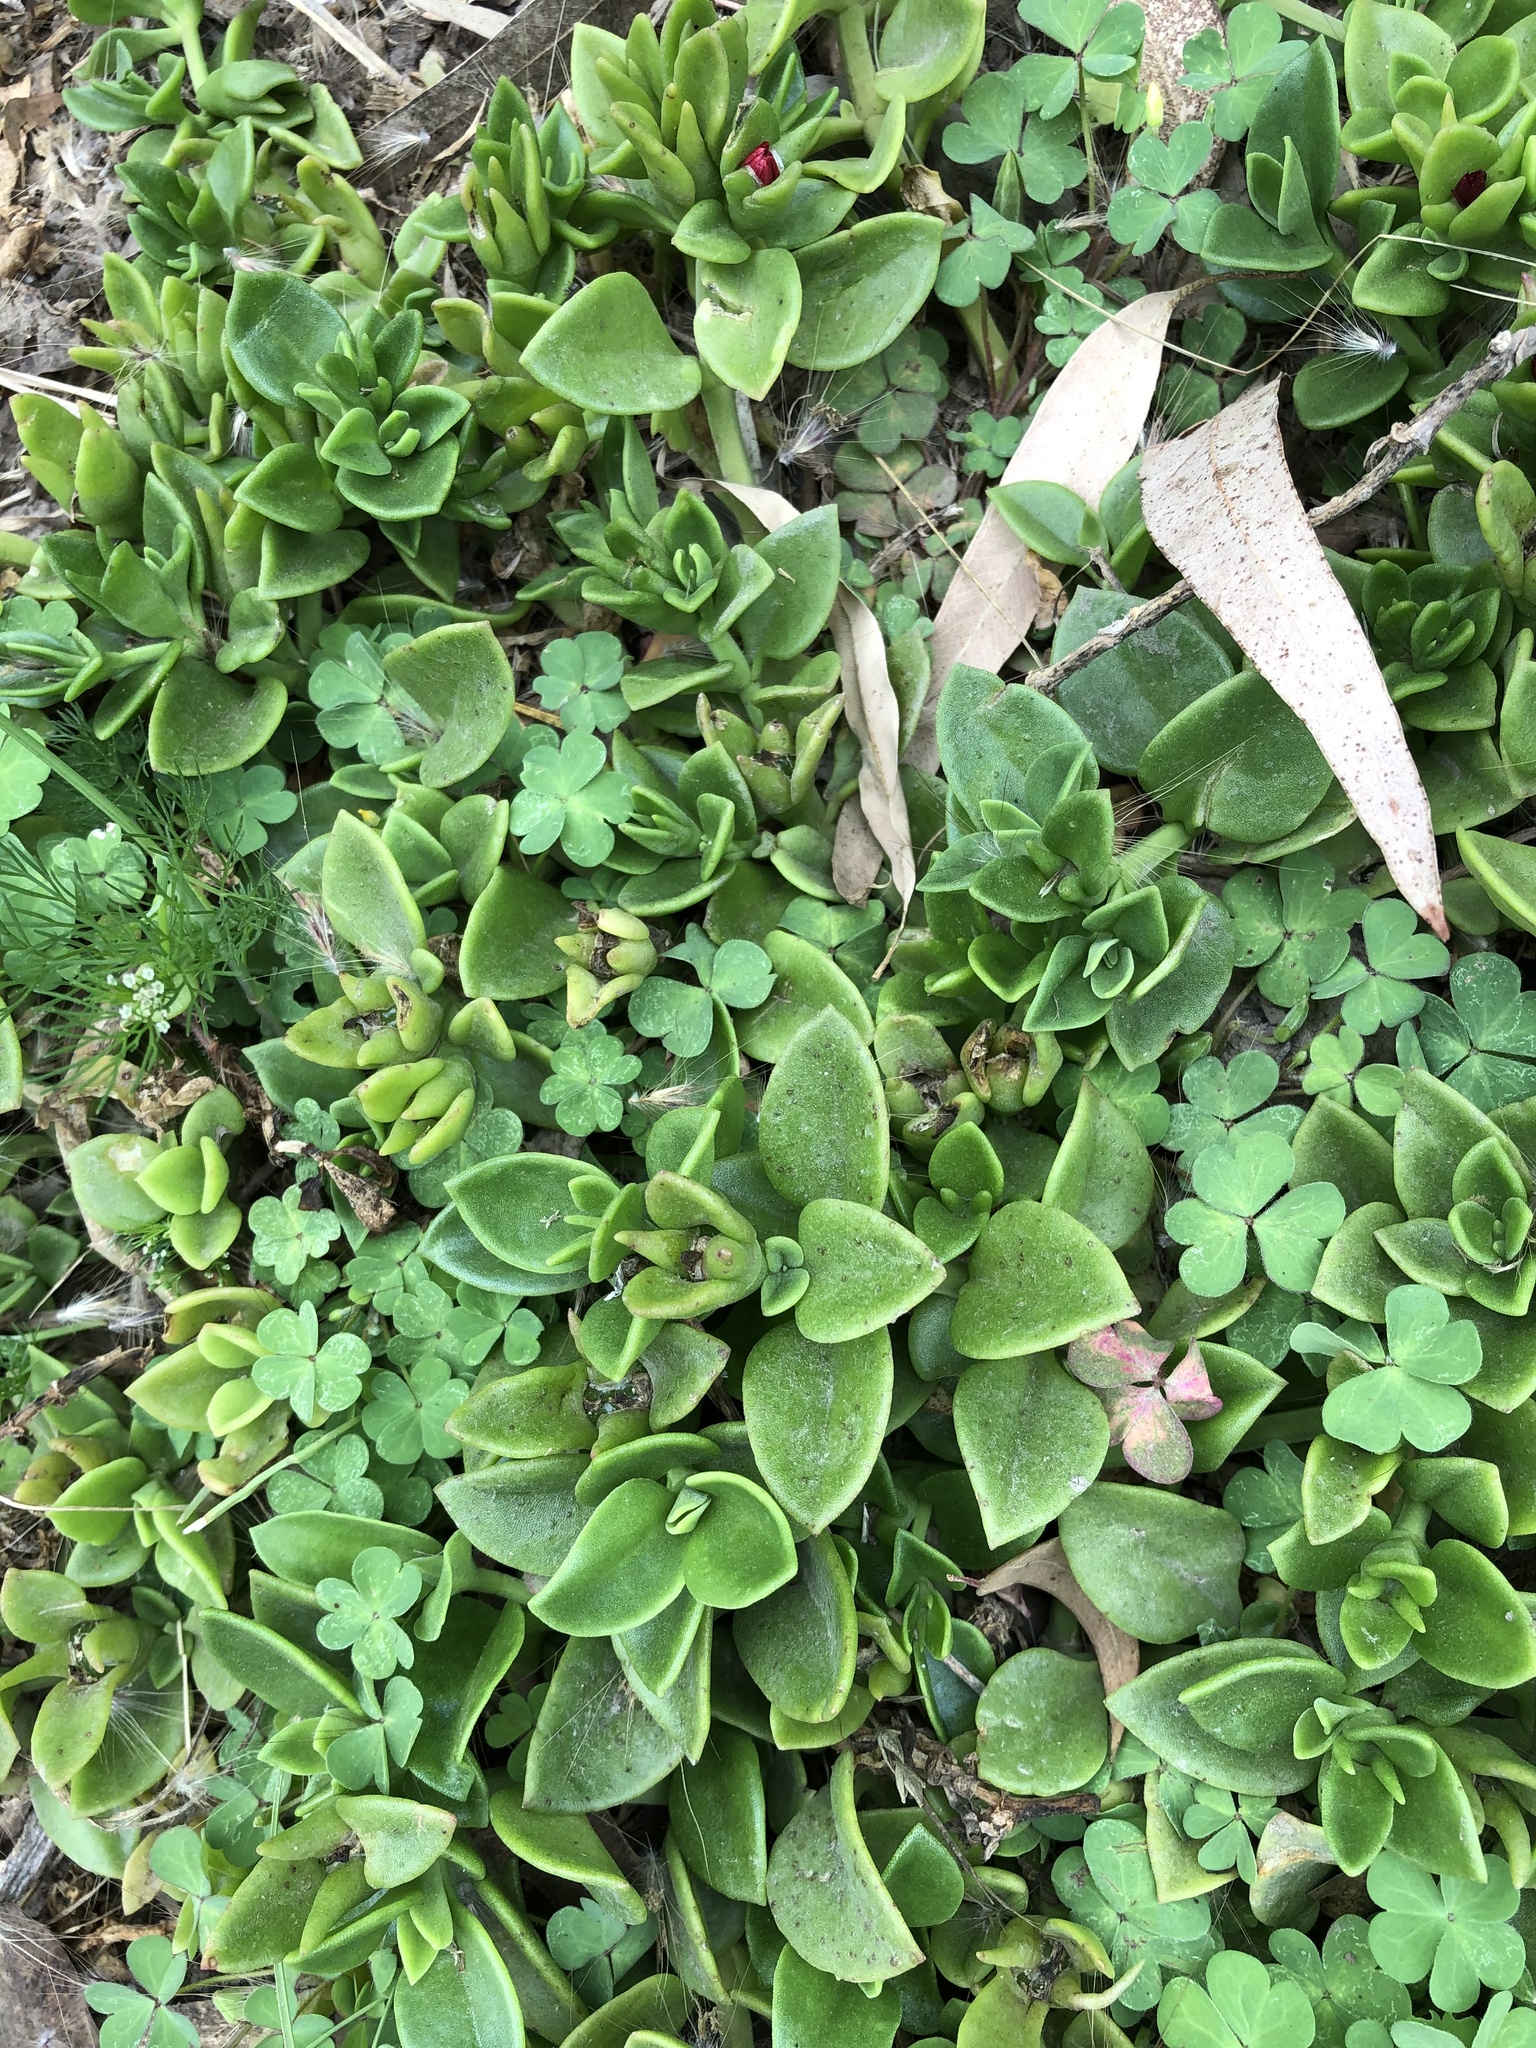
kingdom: Plantae
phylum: Tracheophyta
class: Magnoliopsida
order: Caryophyllales
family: Aizoaceae
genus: Mesembryanthemum
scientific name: Mesembryanthemum cordifolium
